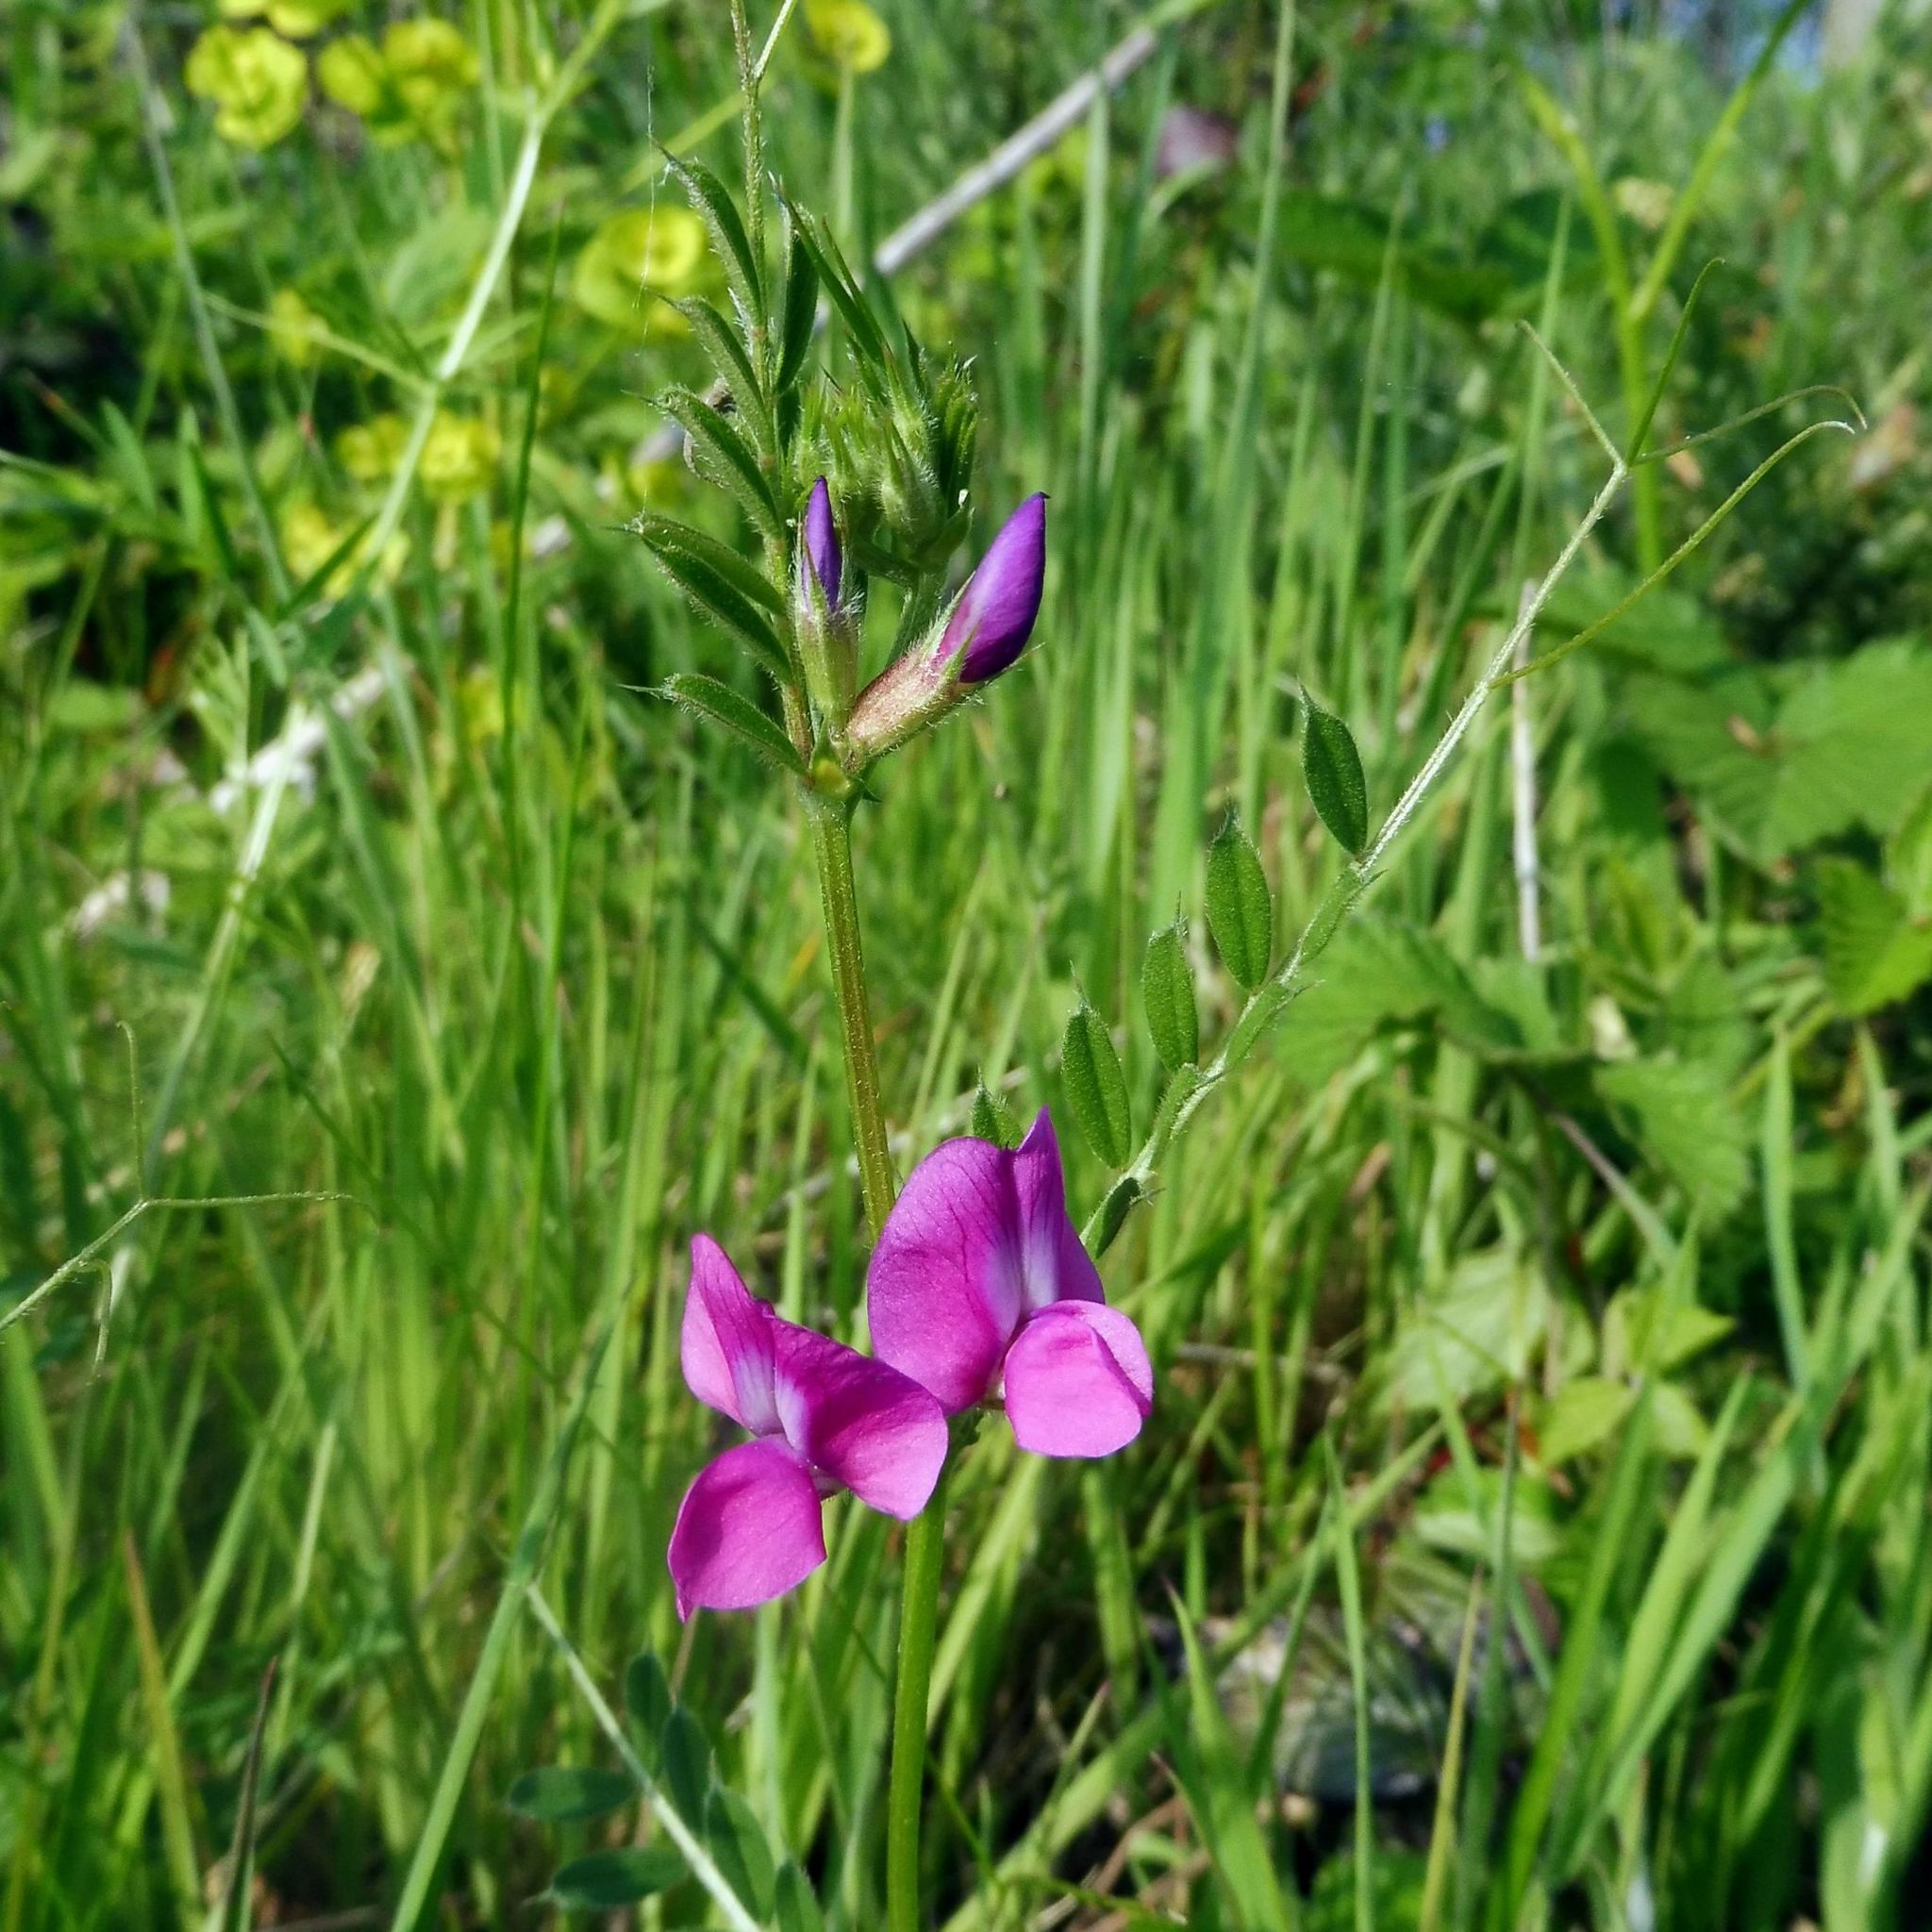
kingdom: Plantae
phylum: Tracheophyta
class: Magnoliopsida
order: Fabales
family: Fabaceae
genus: Vicia
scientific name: Vicia sativa
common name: Garden vetch
